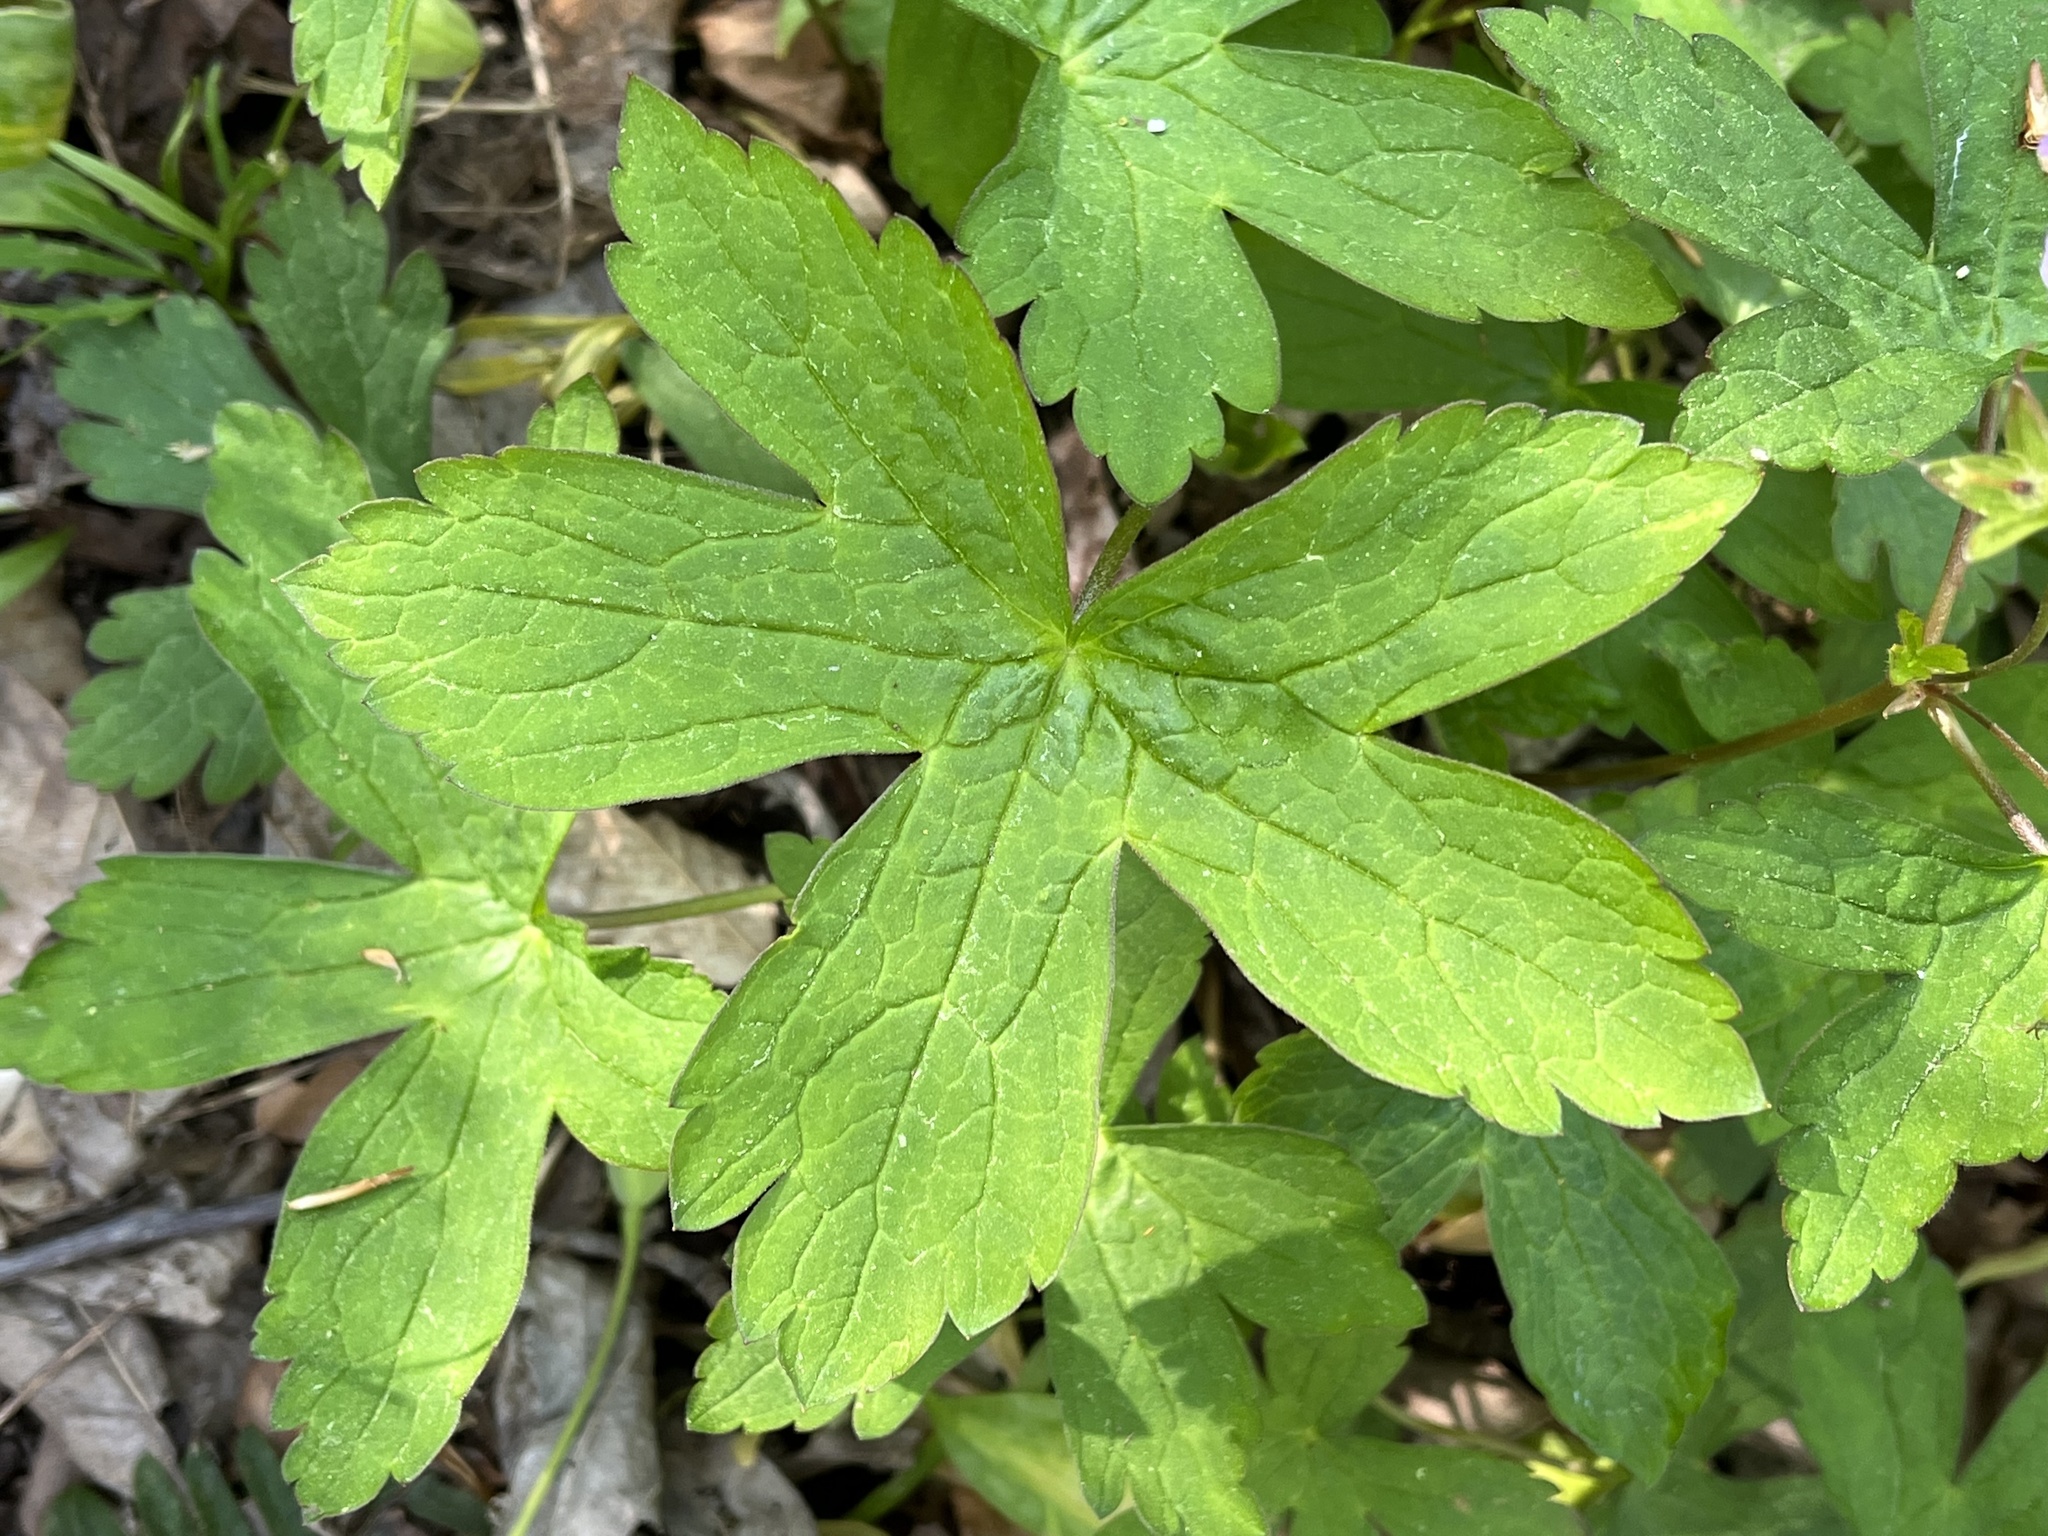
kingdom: Plantae
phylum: Tracheophyta
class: Magnoliopsida
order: Geraniales
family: Geraniaceae
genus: Geranium
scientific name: Geranium maculatum
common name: Spotted geranium
